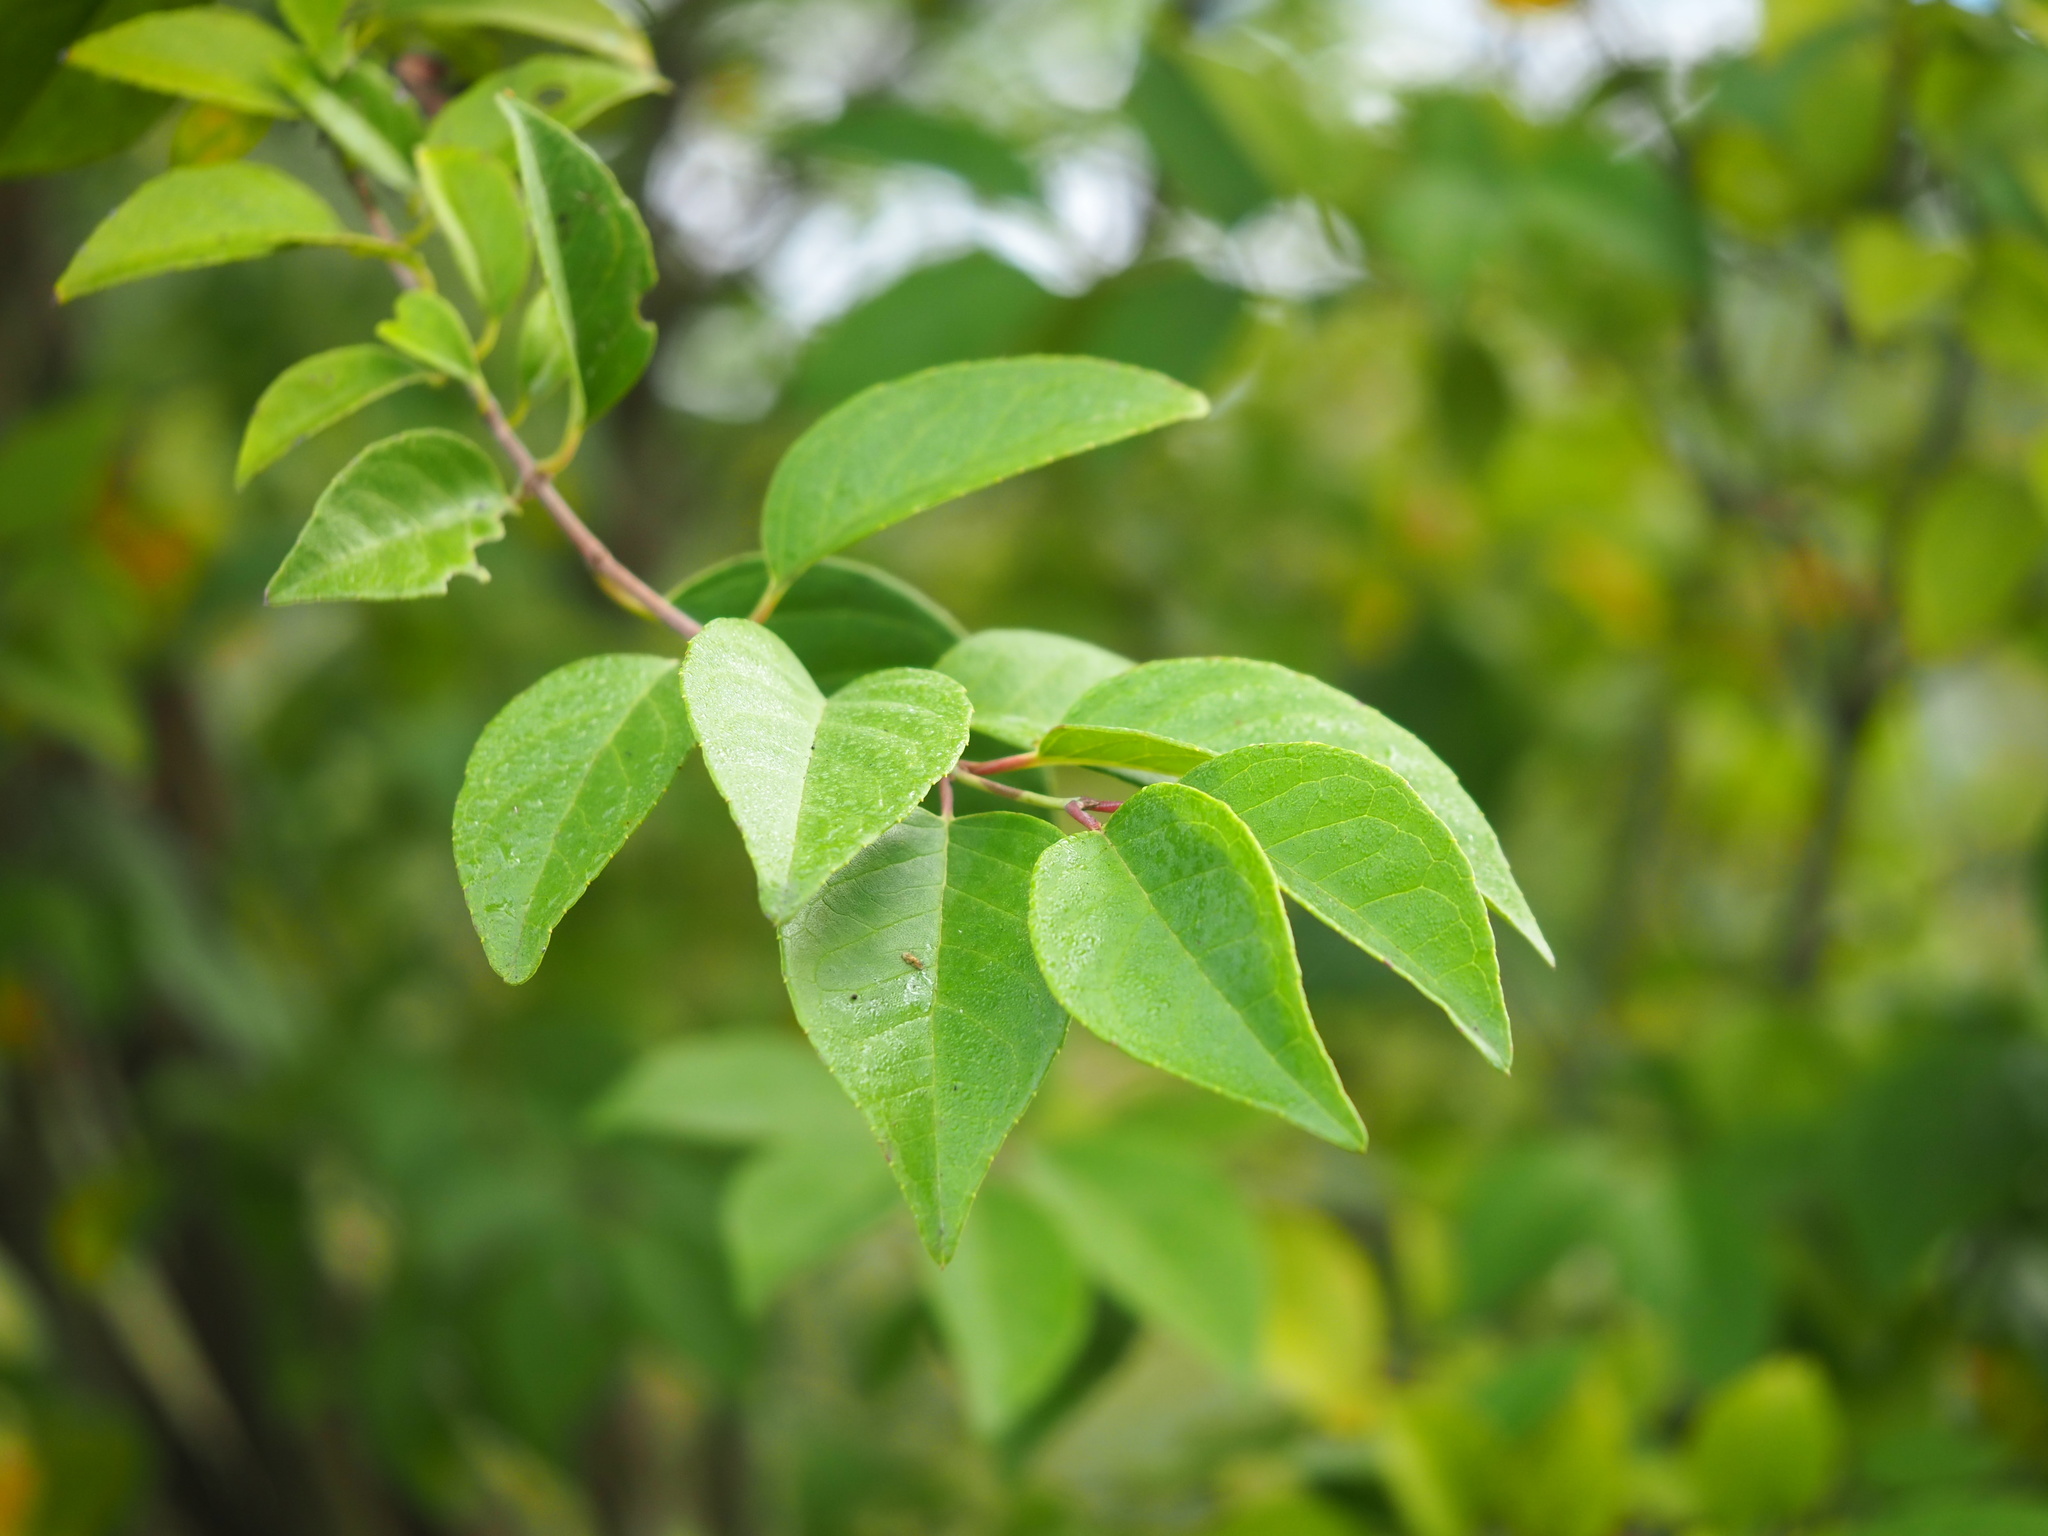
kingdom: Plantae
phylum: Tracheophyta
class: Magnoliopsida
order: Cornales
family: Hydrangeaceae
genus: Deutzia
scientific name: Deutzia pulchra
